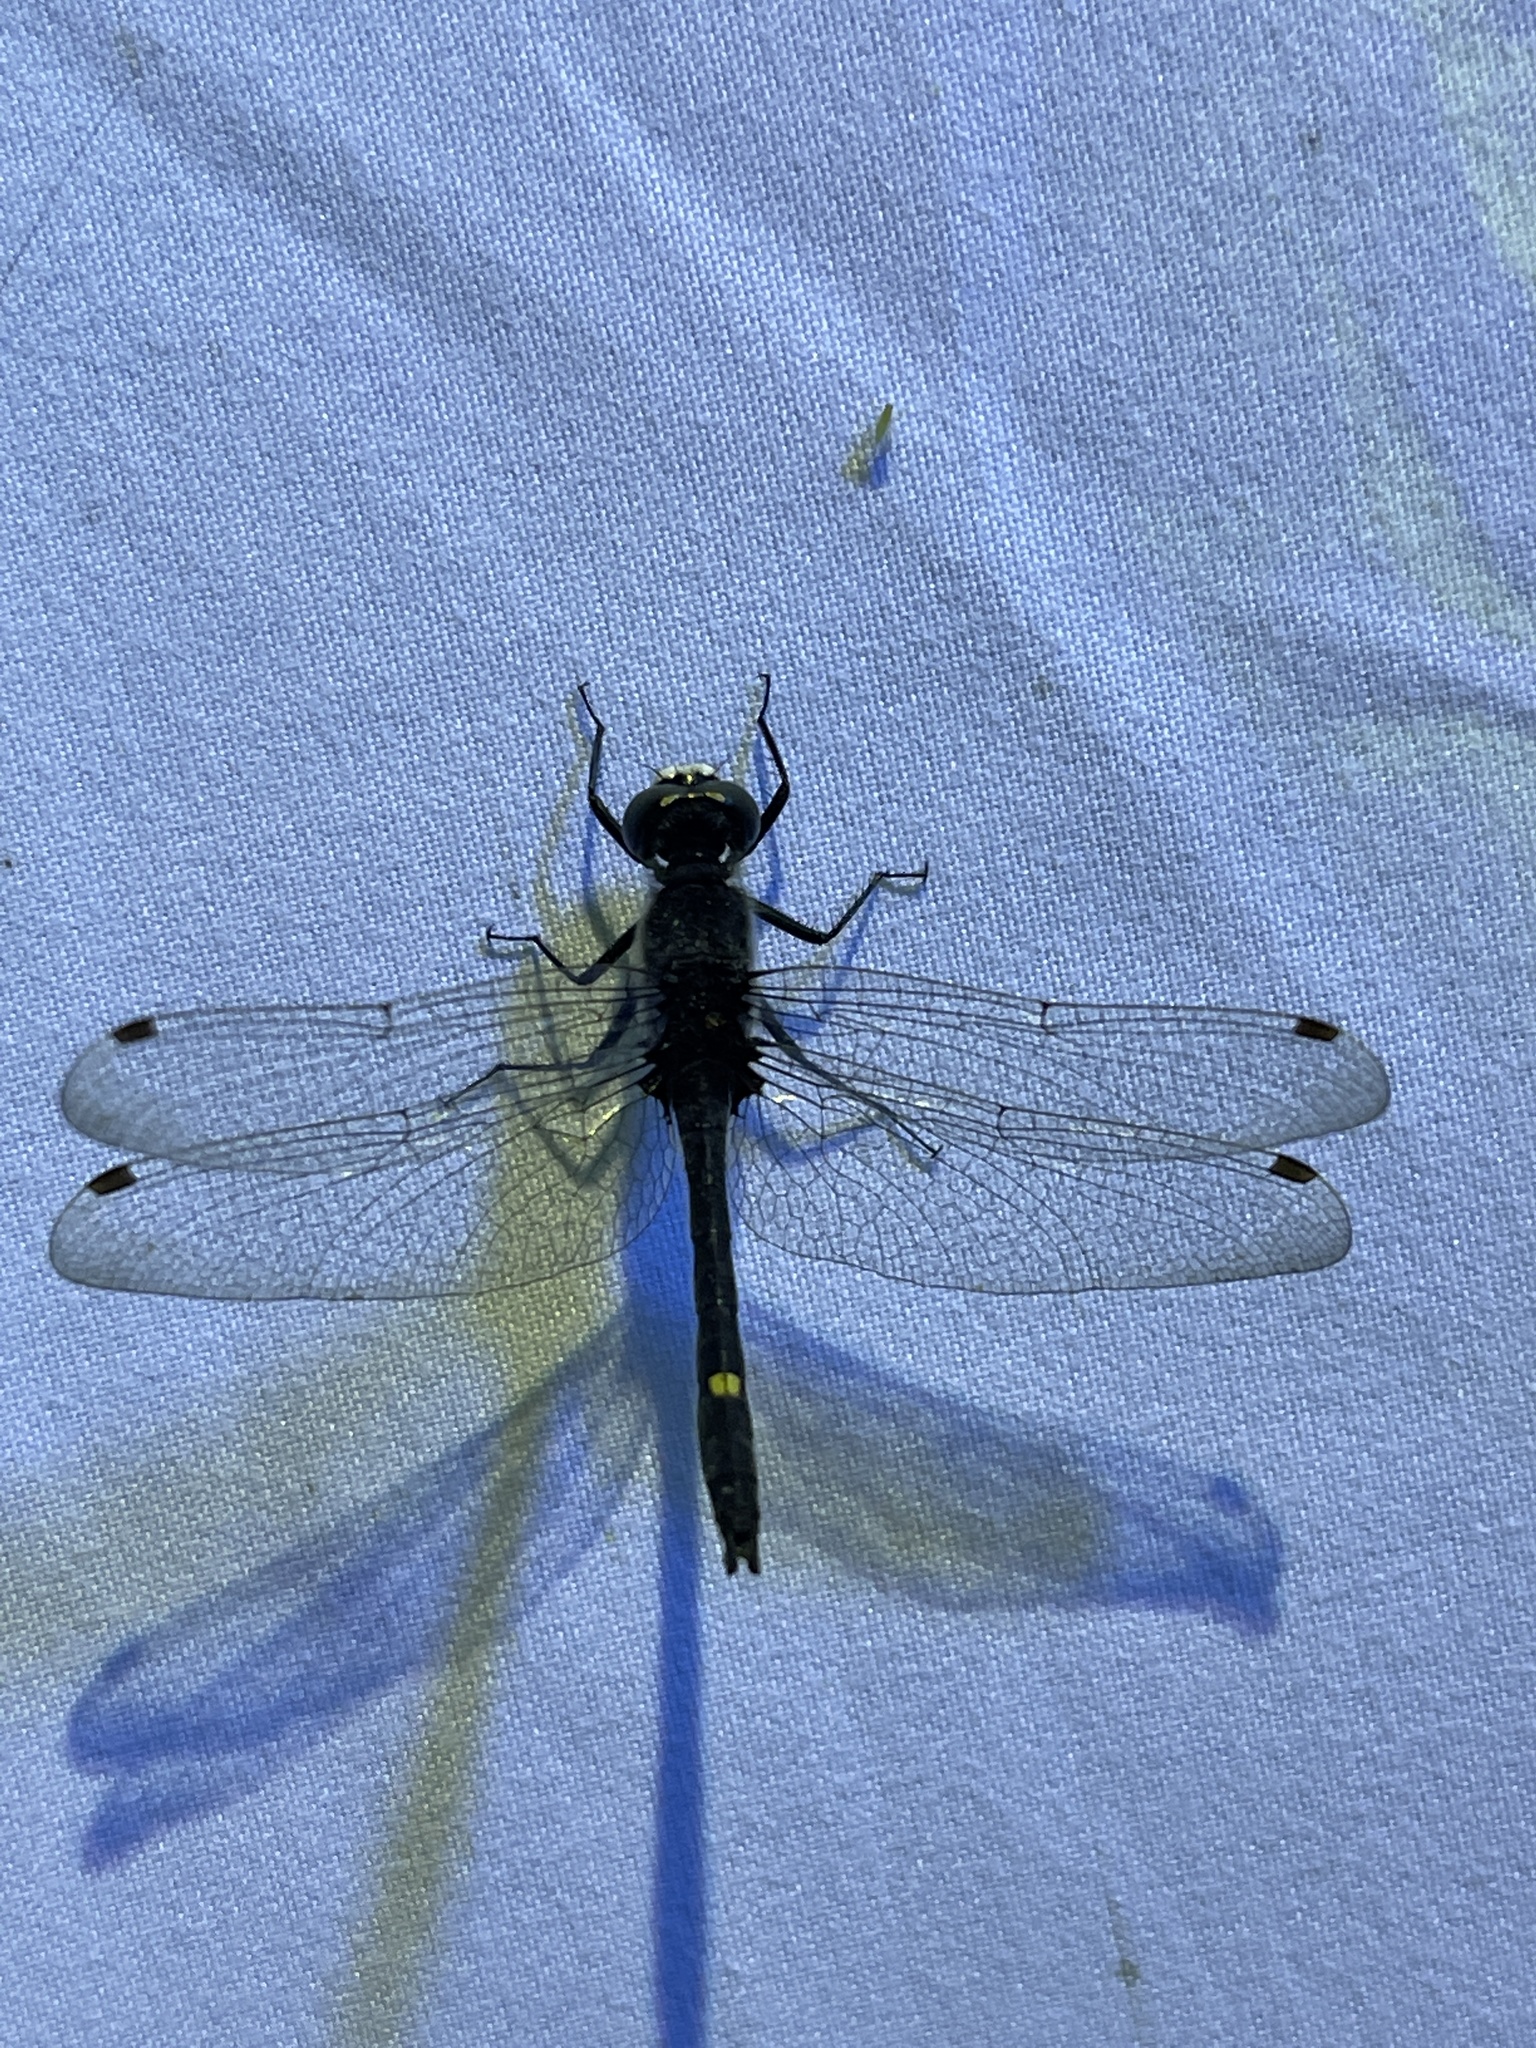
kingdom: Animalia
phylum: Arthropoda
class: Insecta
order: Odonata
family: Libellulidae
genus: Leucorrhinia
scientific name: Leucorrhinia intacta
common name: Dot-tailed whiteface
